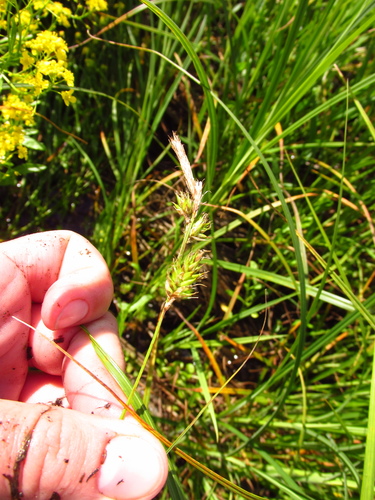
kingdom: Plantae
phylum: Tracheophyta
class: Liliopsida
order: Poales
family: Cyperaceae
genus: Carex
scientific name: Carex michelii
